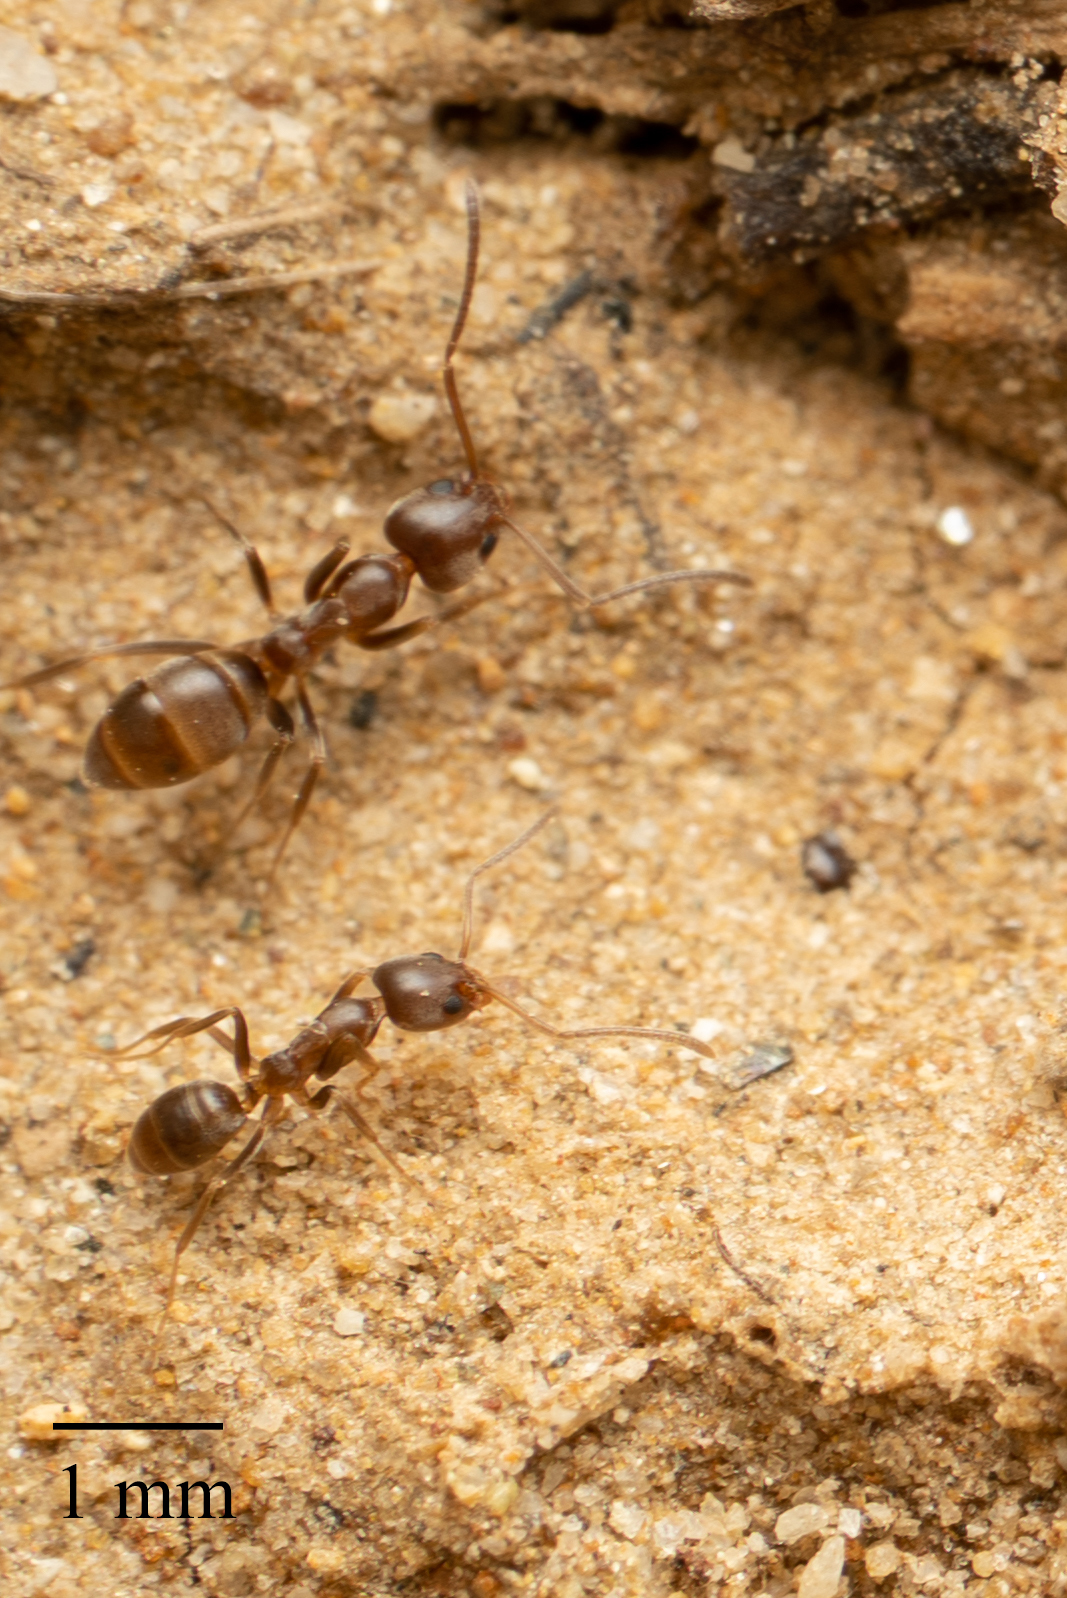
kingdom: Animalia
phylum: Arthropoda
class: Insecta
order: Hymenoptera
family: Formicidae
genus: Linepithema
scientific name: Linepithema humile
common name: Argentine ant
